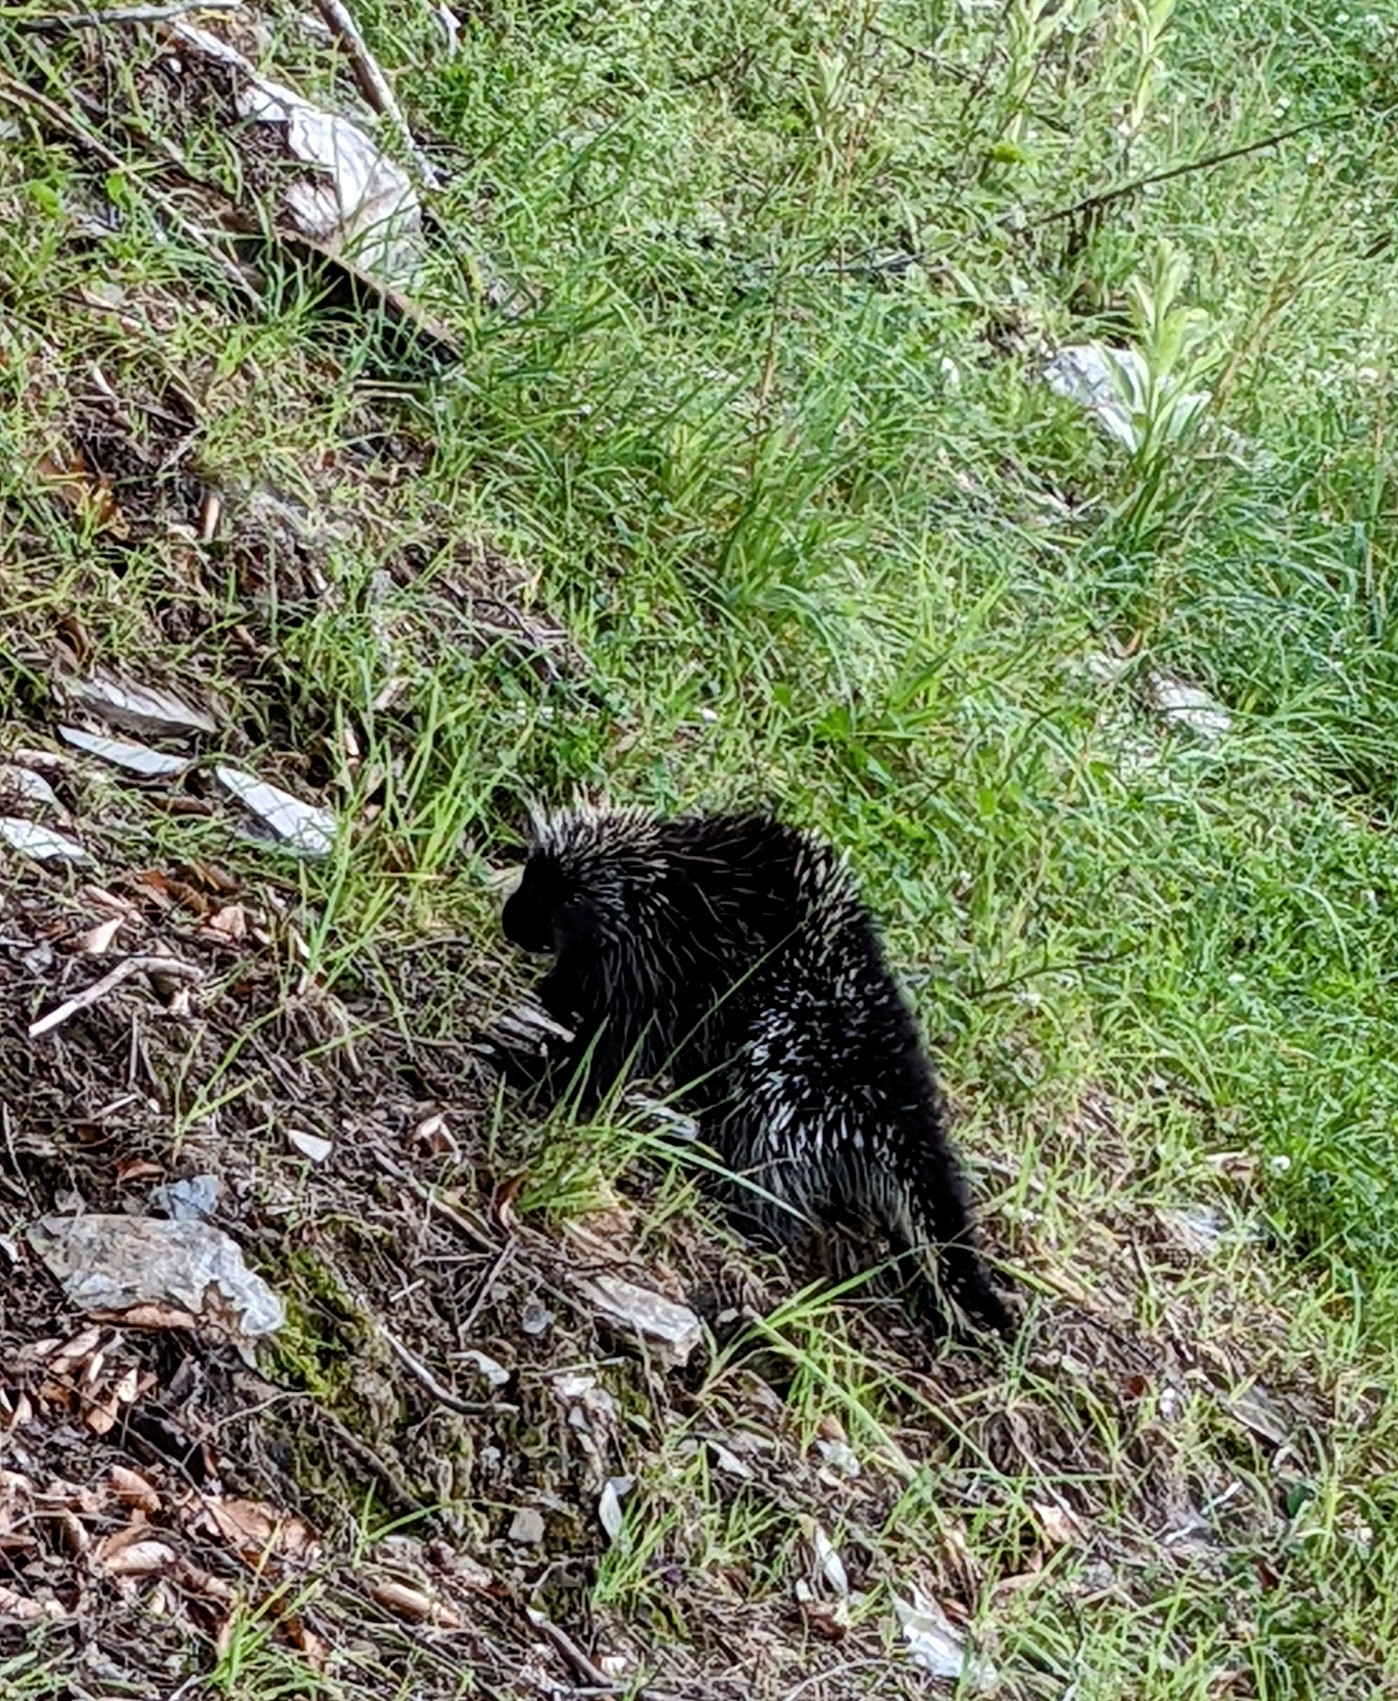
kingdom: Animalia
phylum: Chordata
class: Mammalia
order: Rodentia
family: Erethizontidae
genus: Erethizon
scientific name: Erethizon dorsatus
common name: North american porcupine
